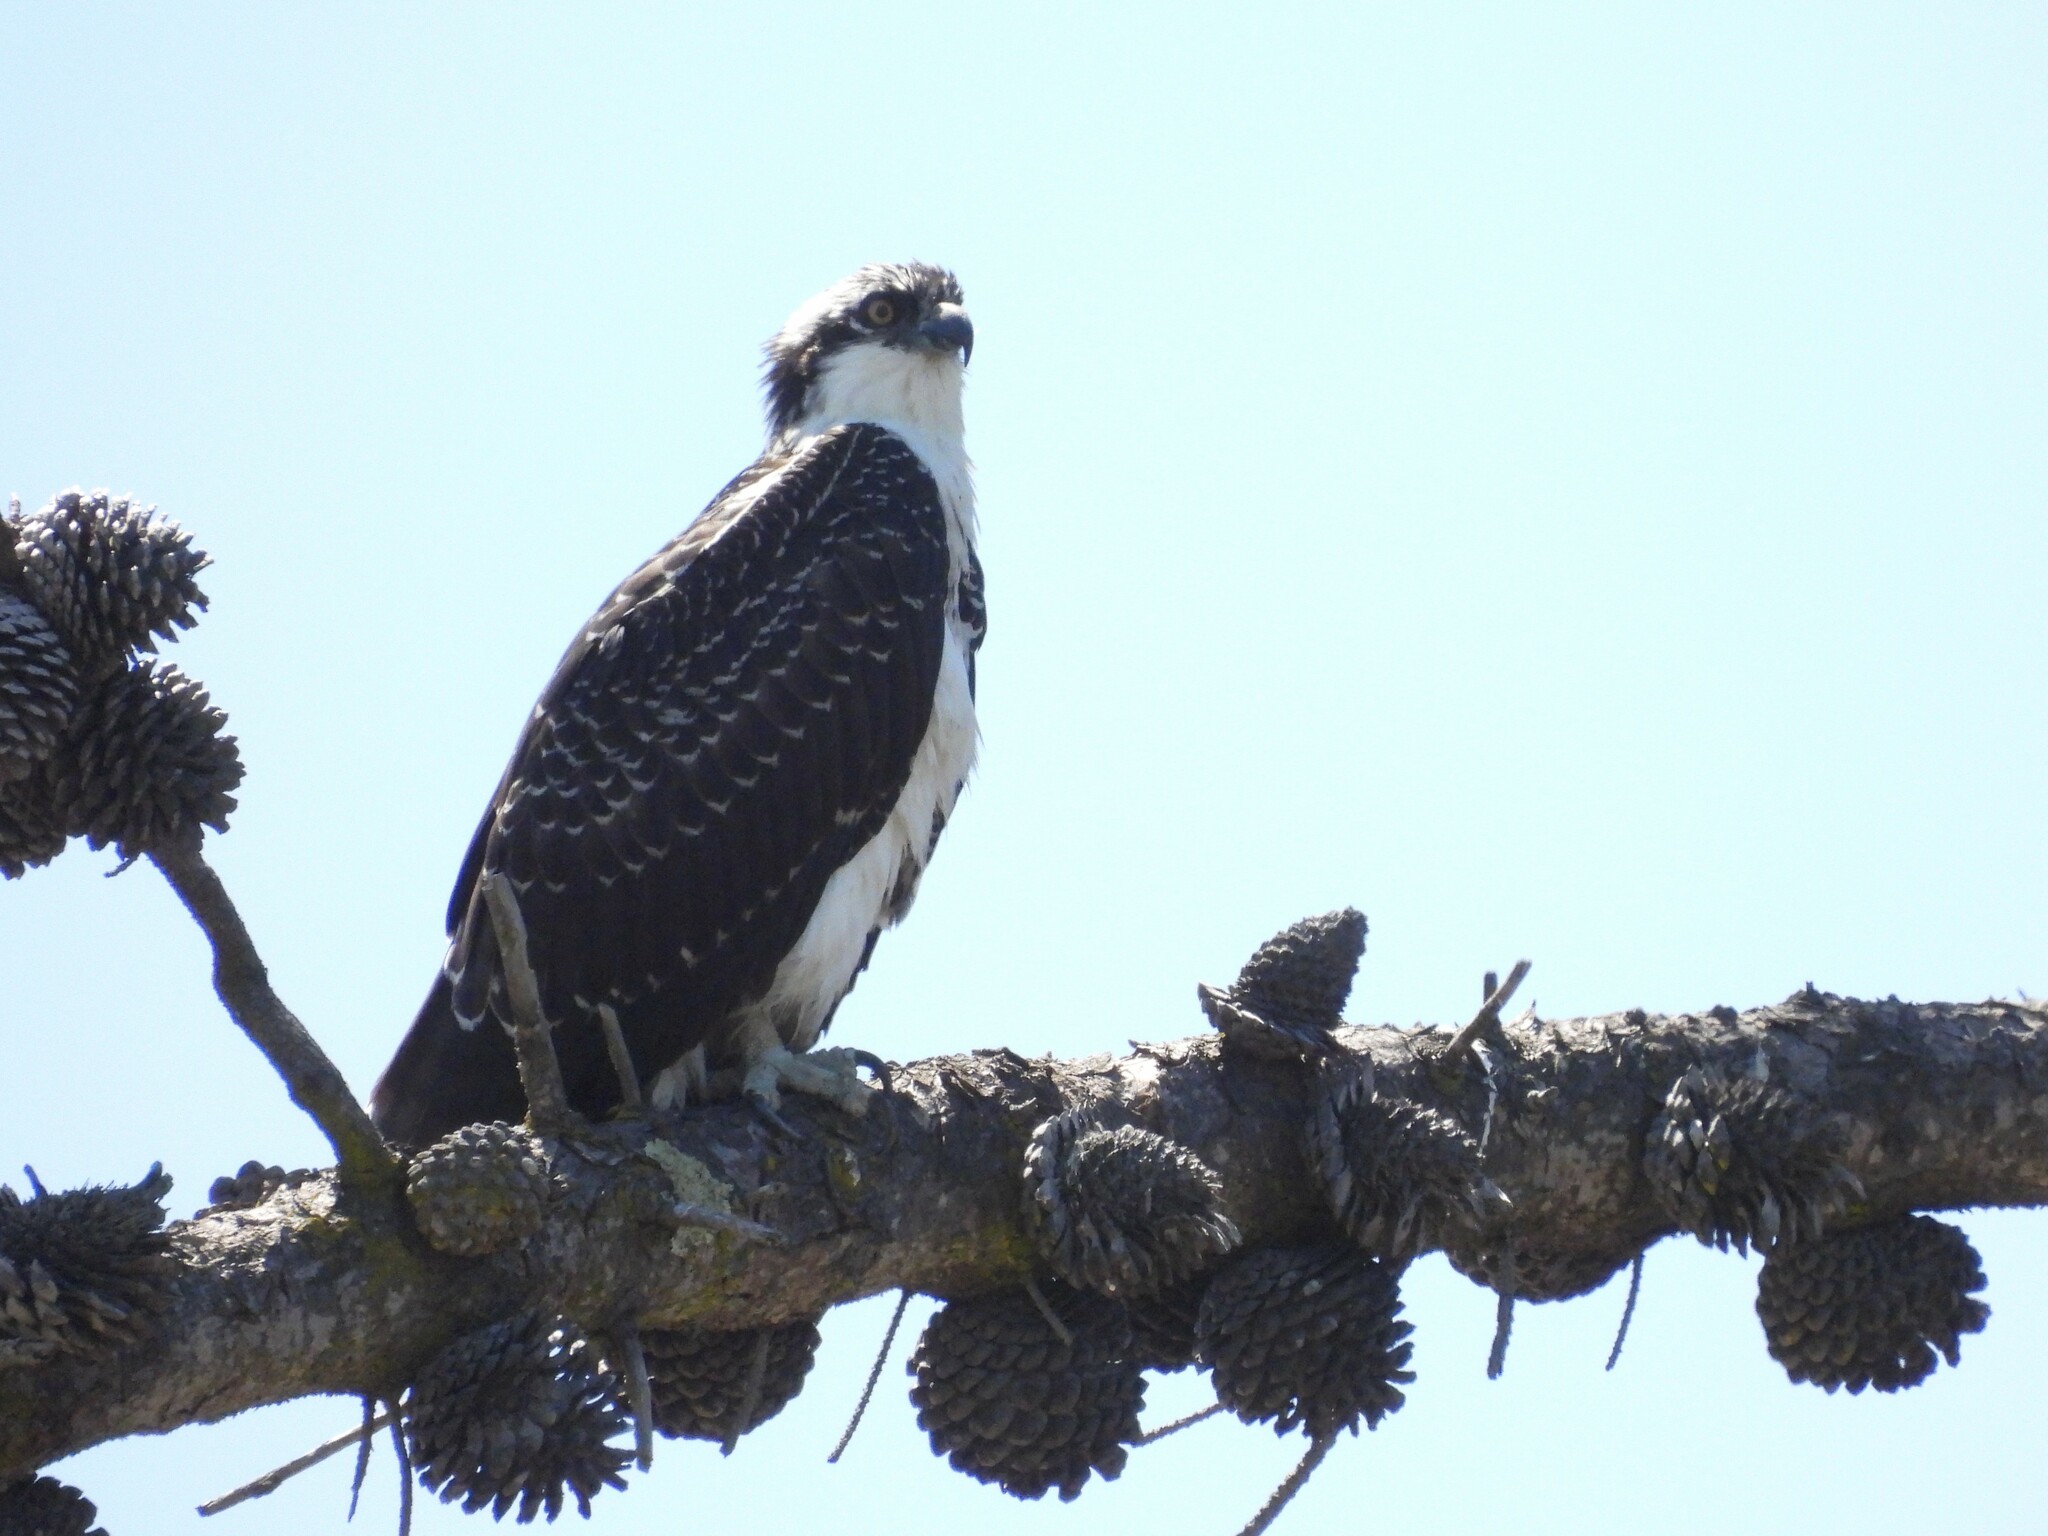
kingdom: Animalia
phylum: Chordata
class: Aves
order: Accipitriformes
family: Pandionidae
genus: Pandion
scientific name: Pandion haliaetus
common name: Osprey
